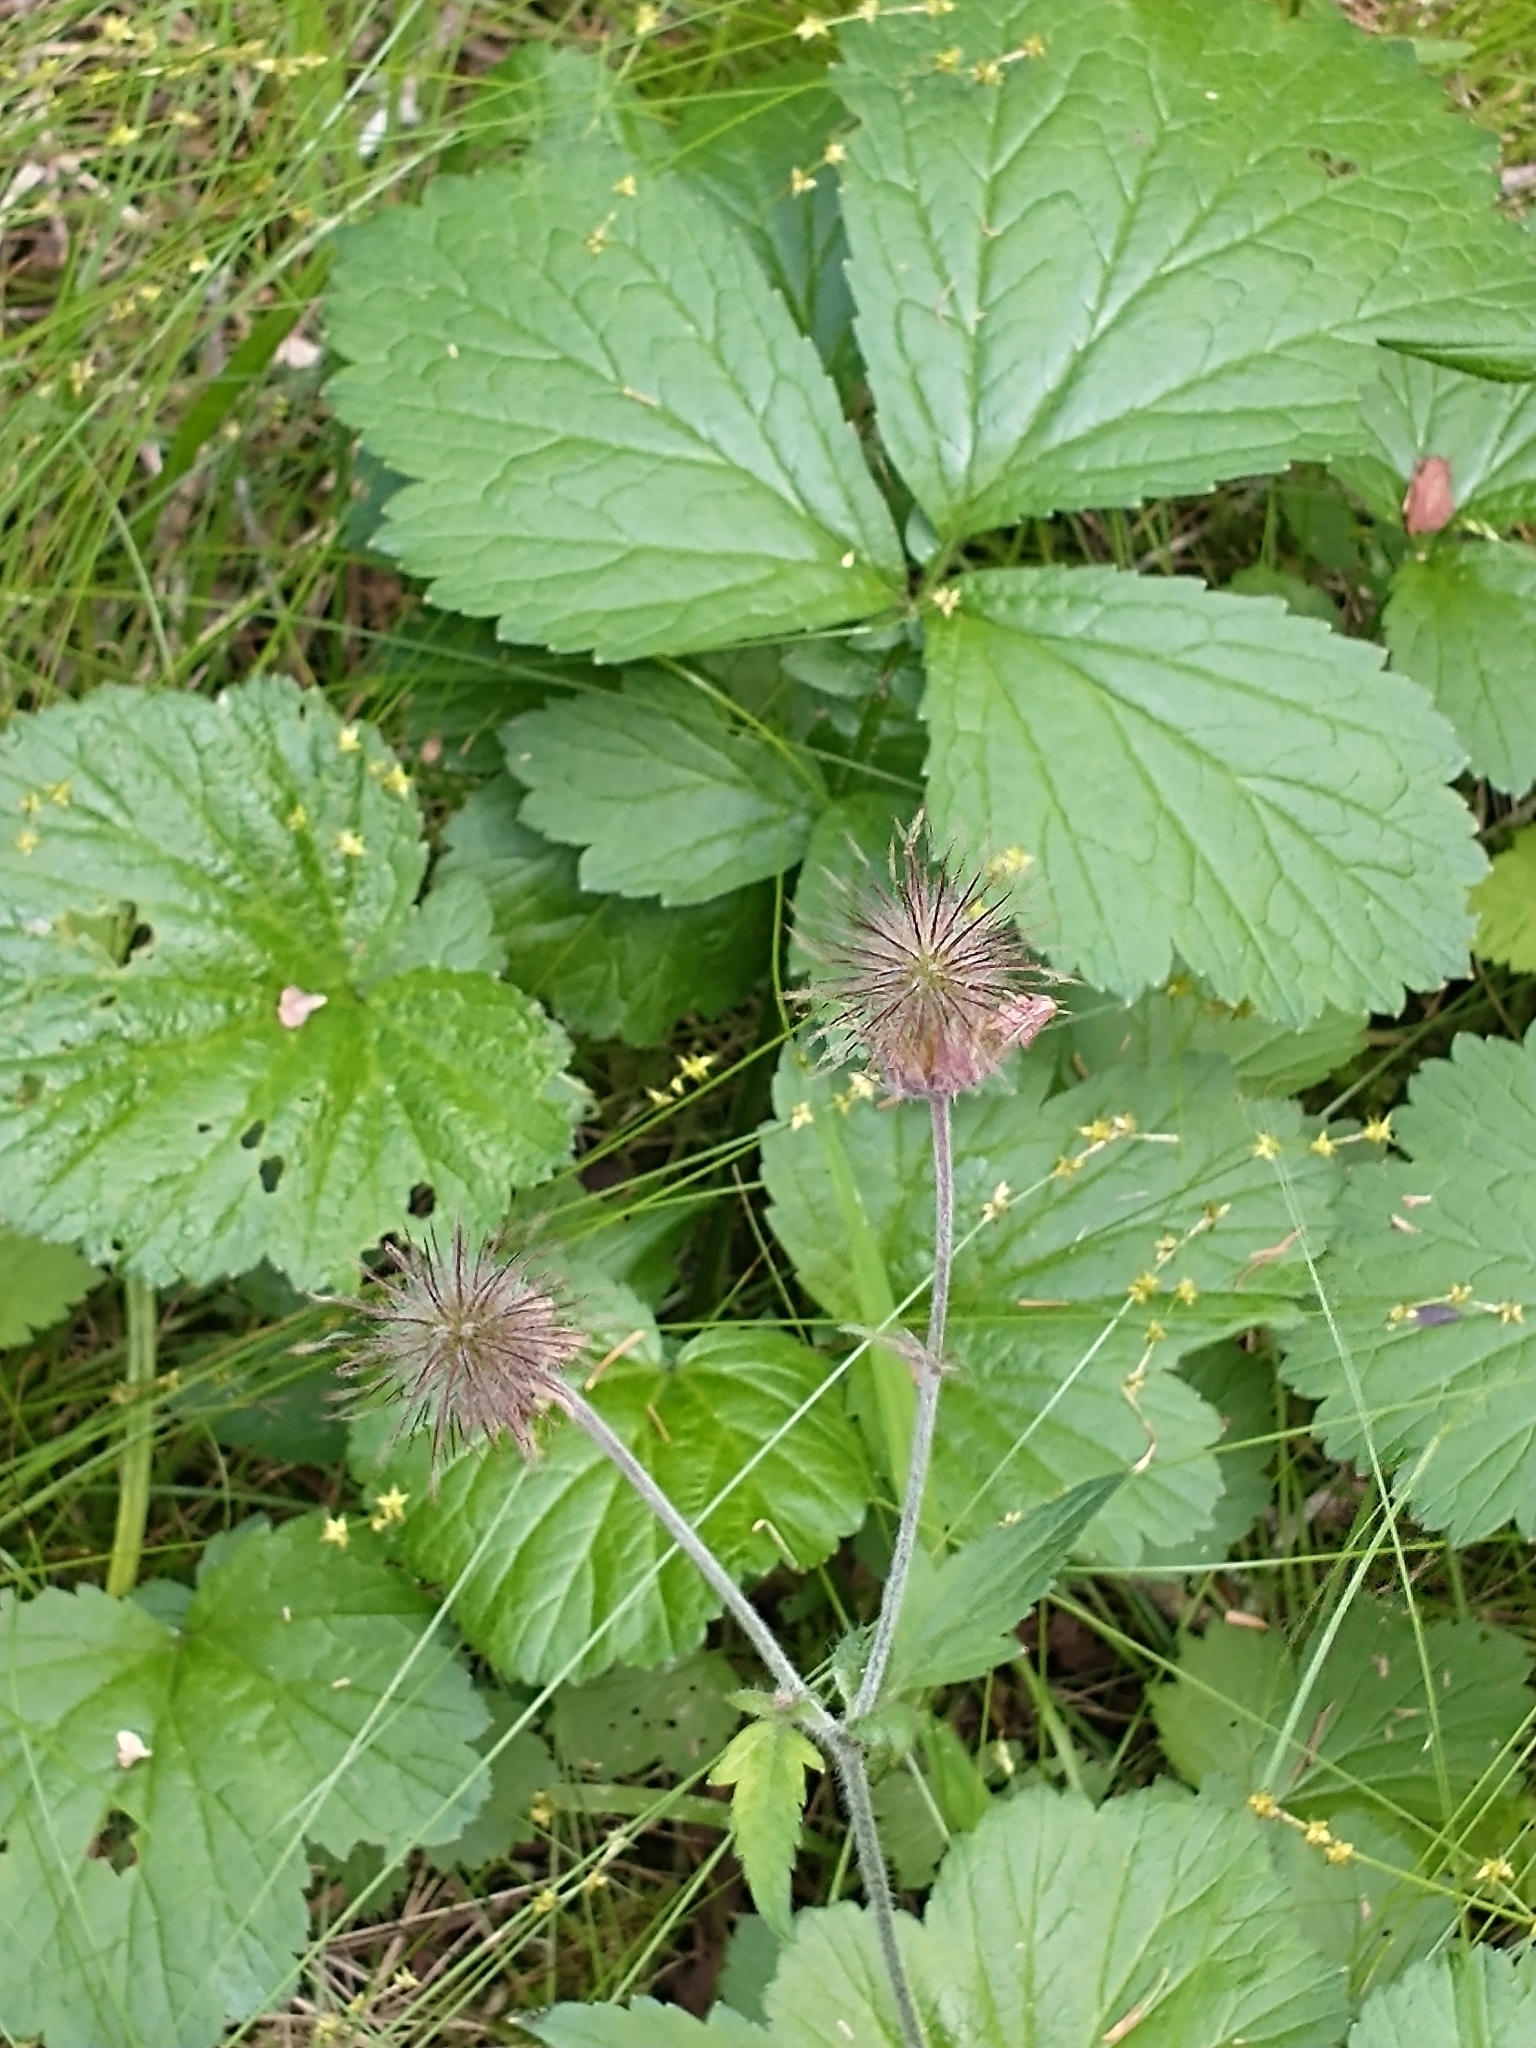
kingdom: Plantae
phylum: Tracheophyta
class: Magnoliopsida
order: Rosales
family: Rosaceae
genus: Geum
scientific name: Geum rivale
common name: Water avens
